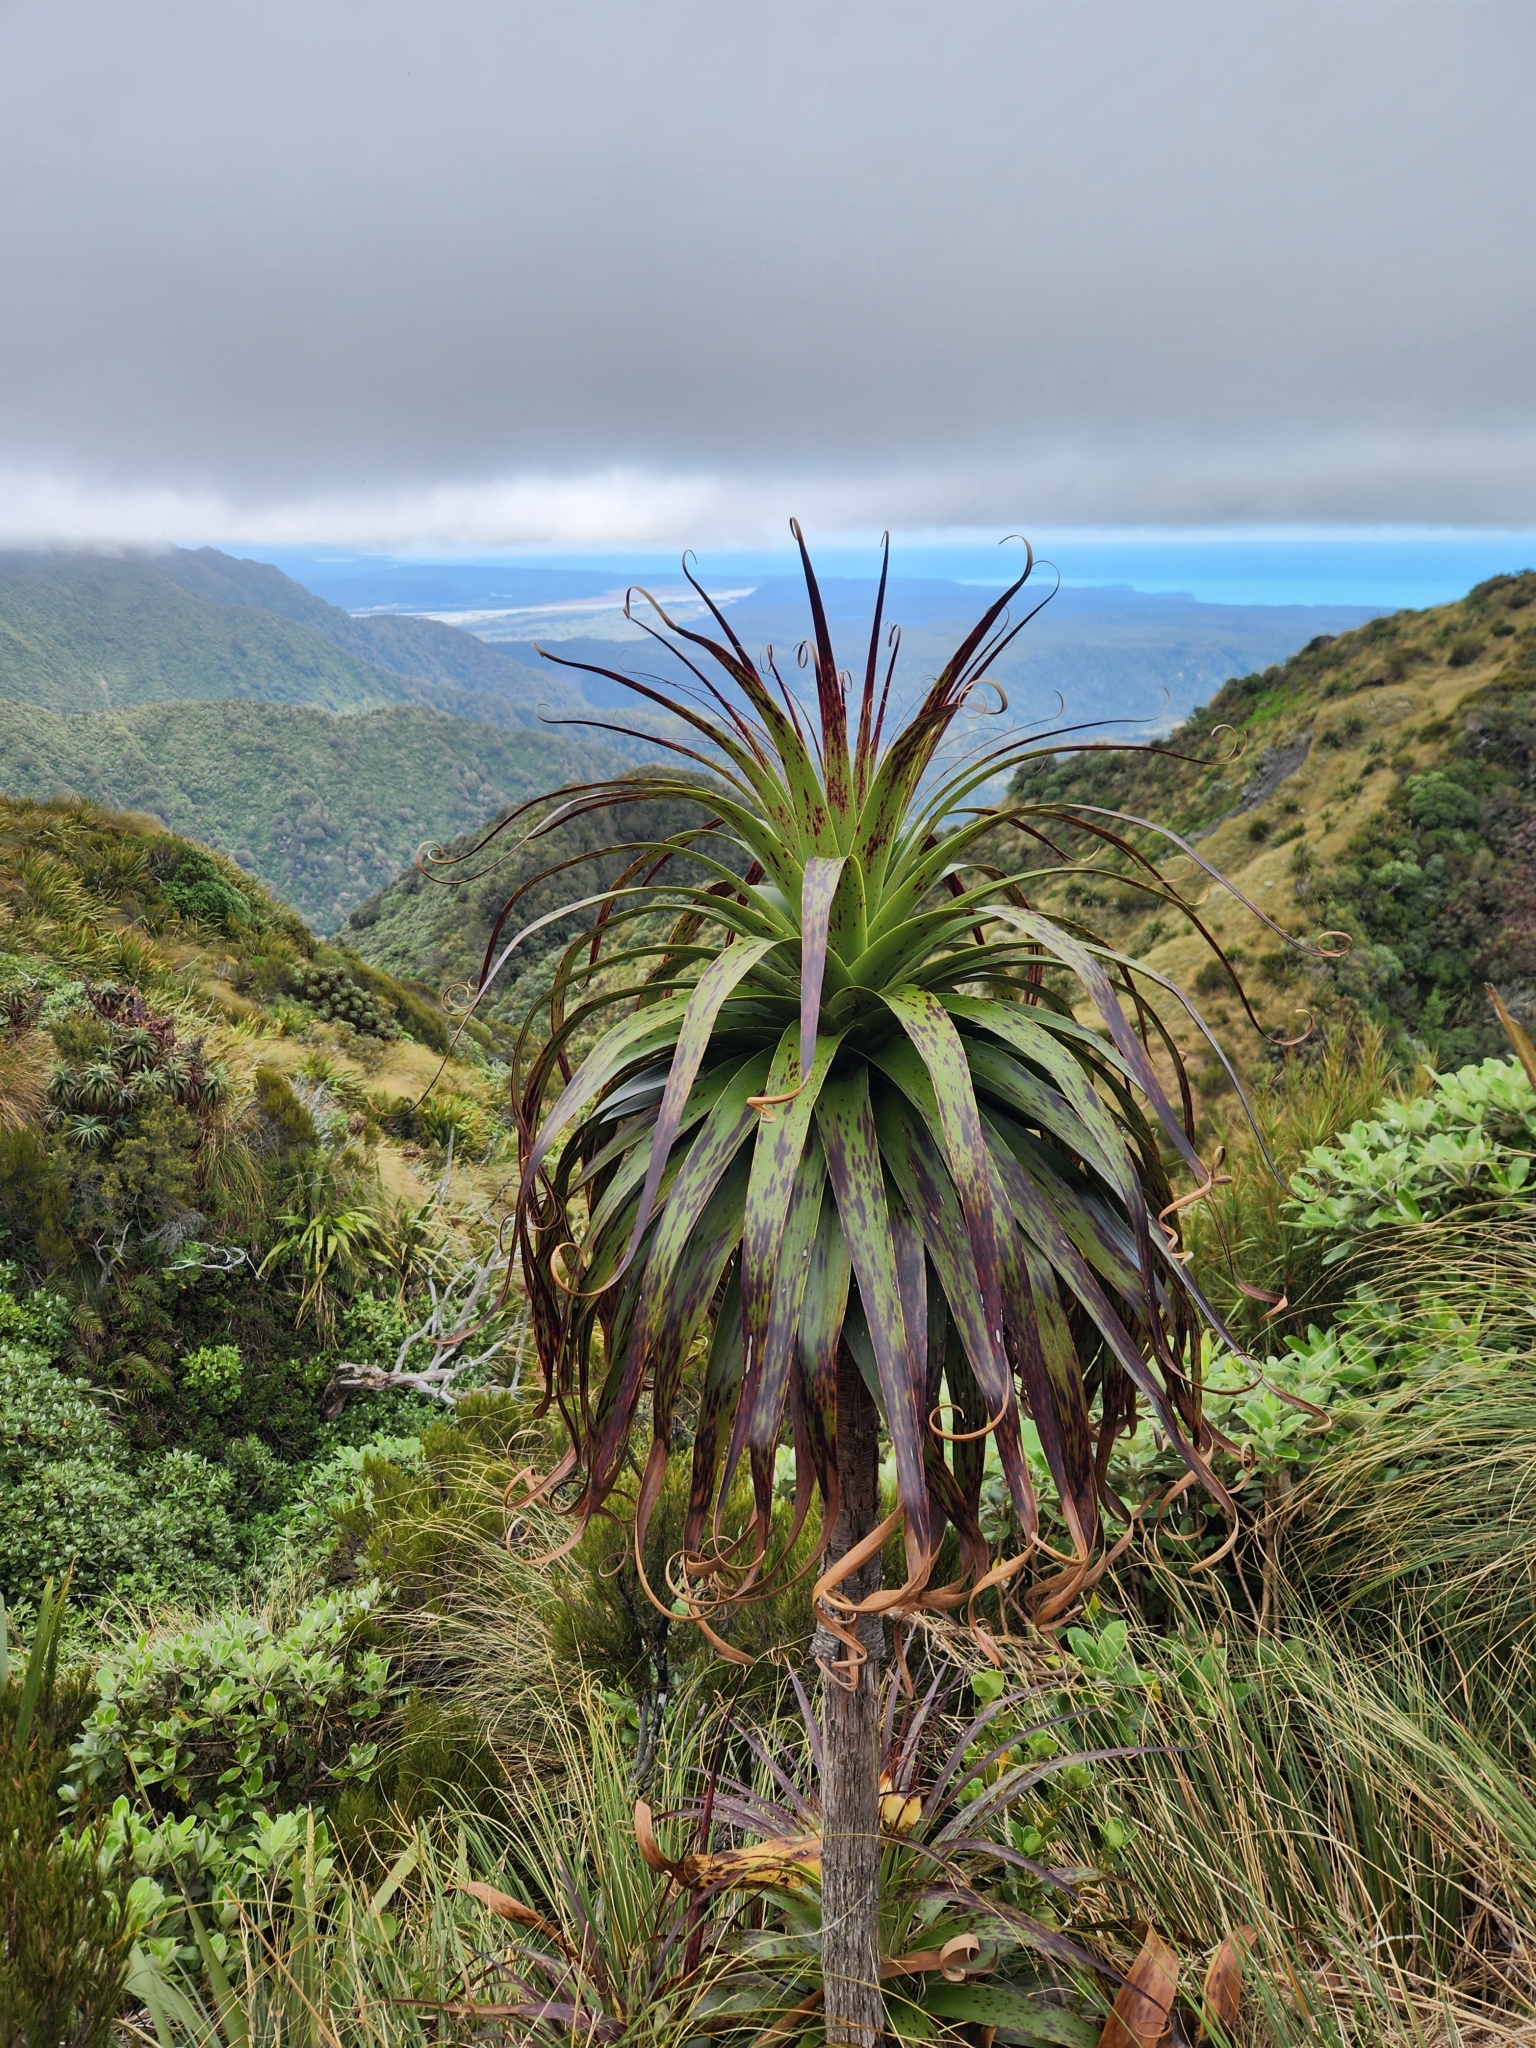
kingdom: Plantae
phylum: Tracheophyta
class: Magnoliopsida
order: Ericales
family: Ericaceae
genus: Dracophyllum
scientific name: Dracophyllum fiordense
